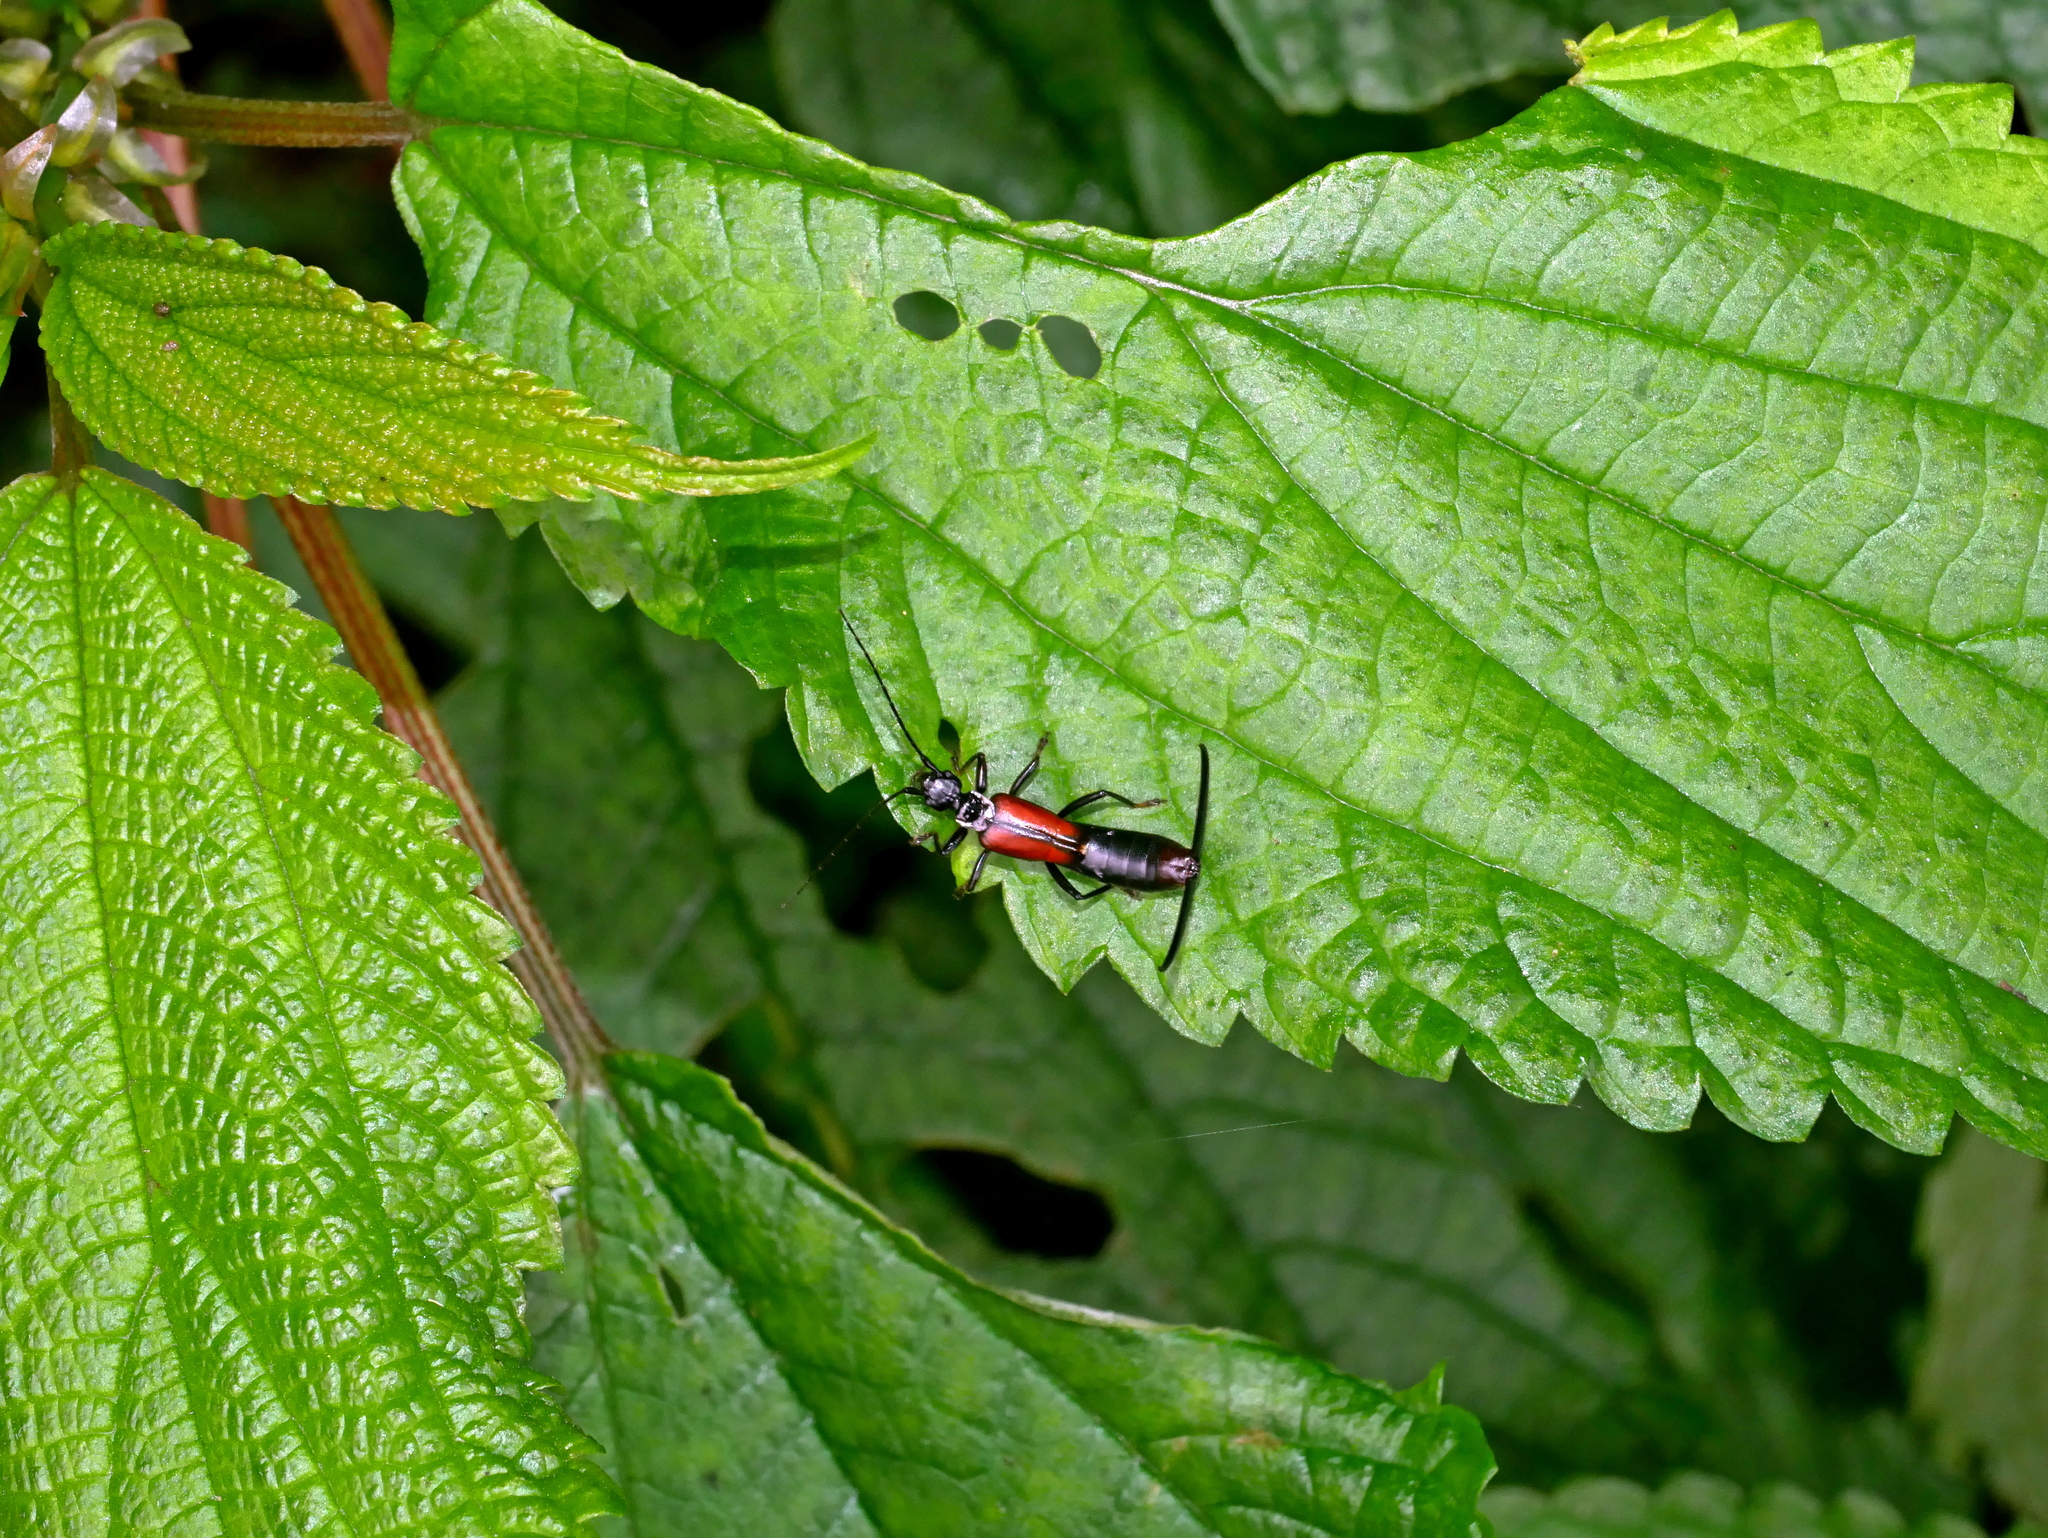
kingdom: Plantae
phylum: Tracheophyta
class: Magnoliopsida
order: Rosales
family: Urticaceae
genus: Boehmeria
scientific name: Boehmeria sieboldiana
